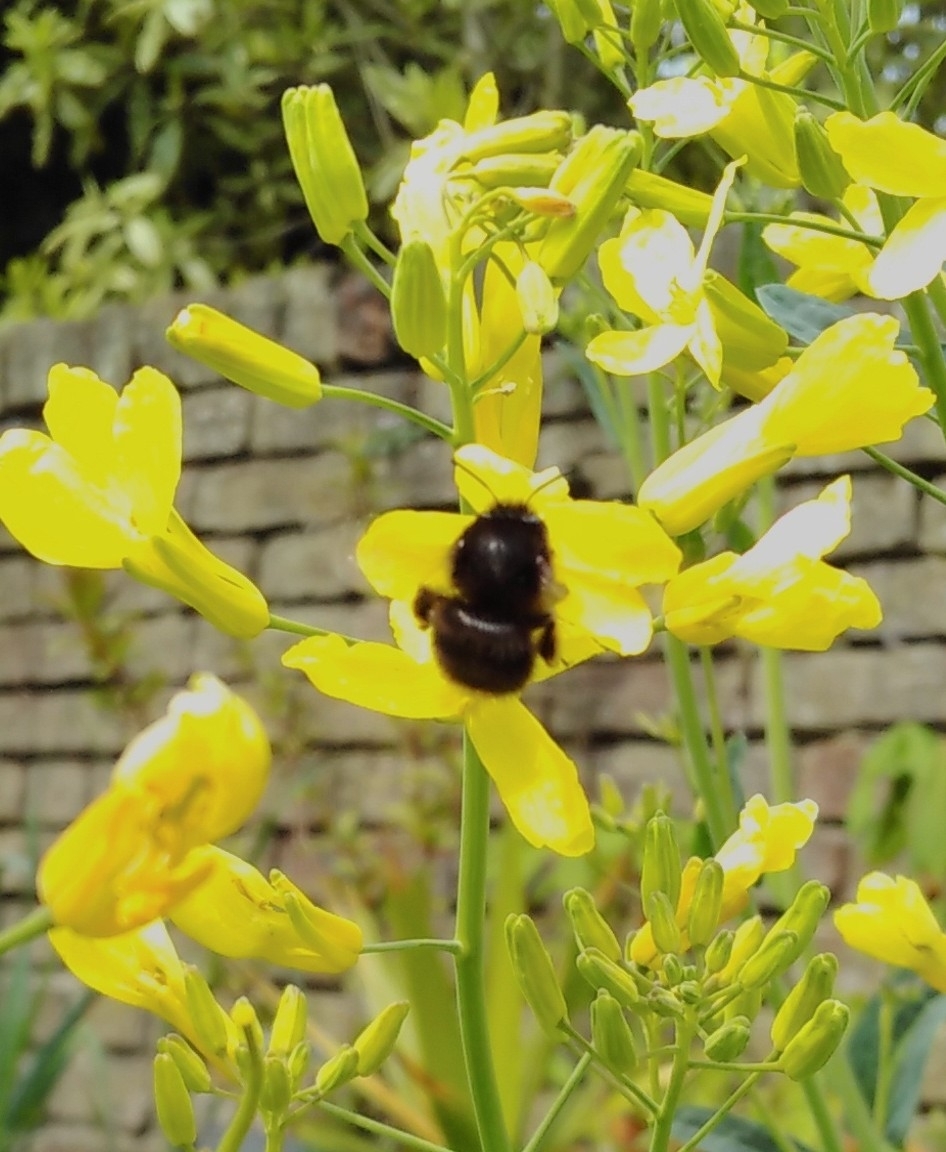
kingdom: Animalia
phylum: Arthropoda
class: Insecta
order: Hymenoptera
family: Apidae
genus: Anthophora
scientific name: Anthophora plumipes
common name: Hairy-footed flower bee
